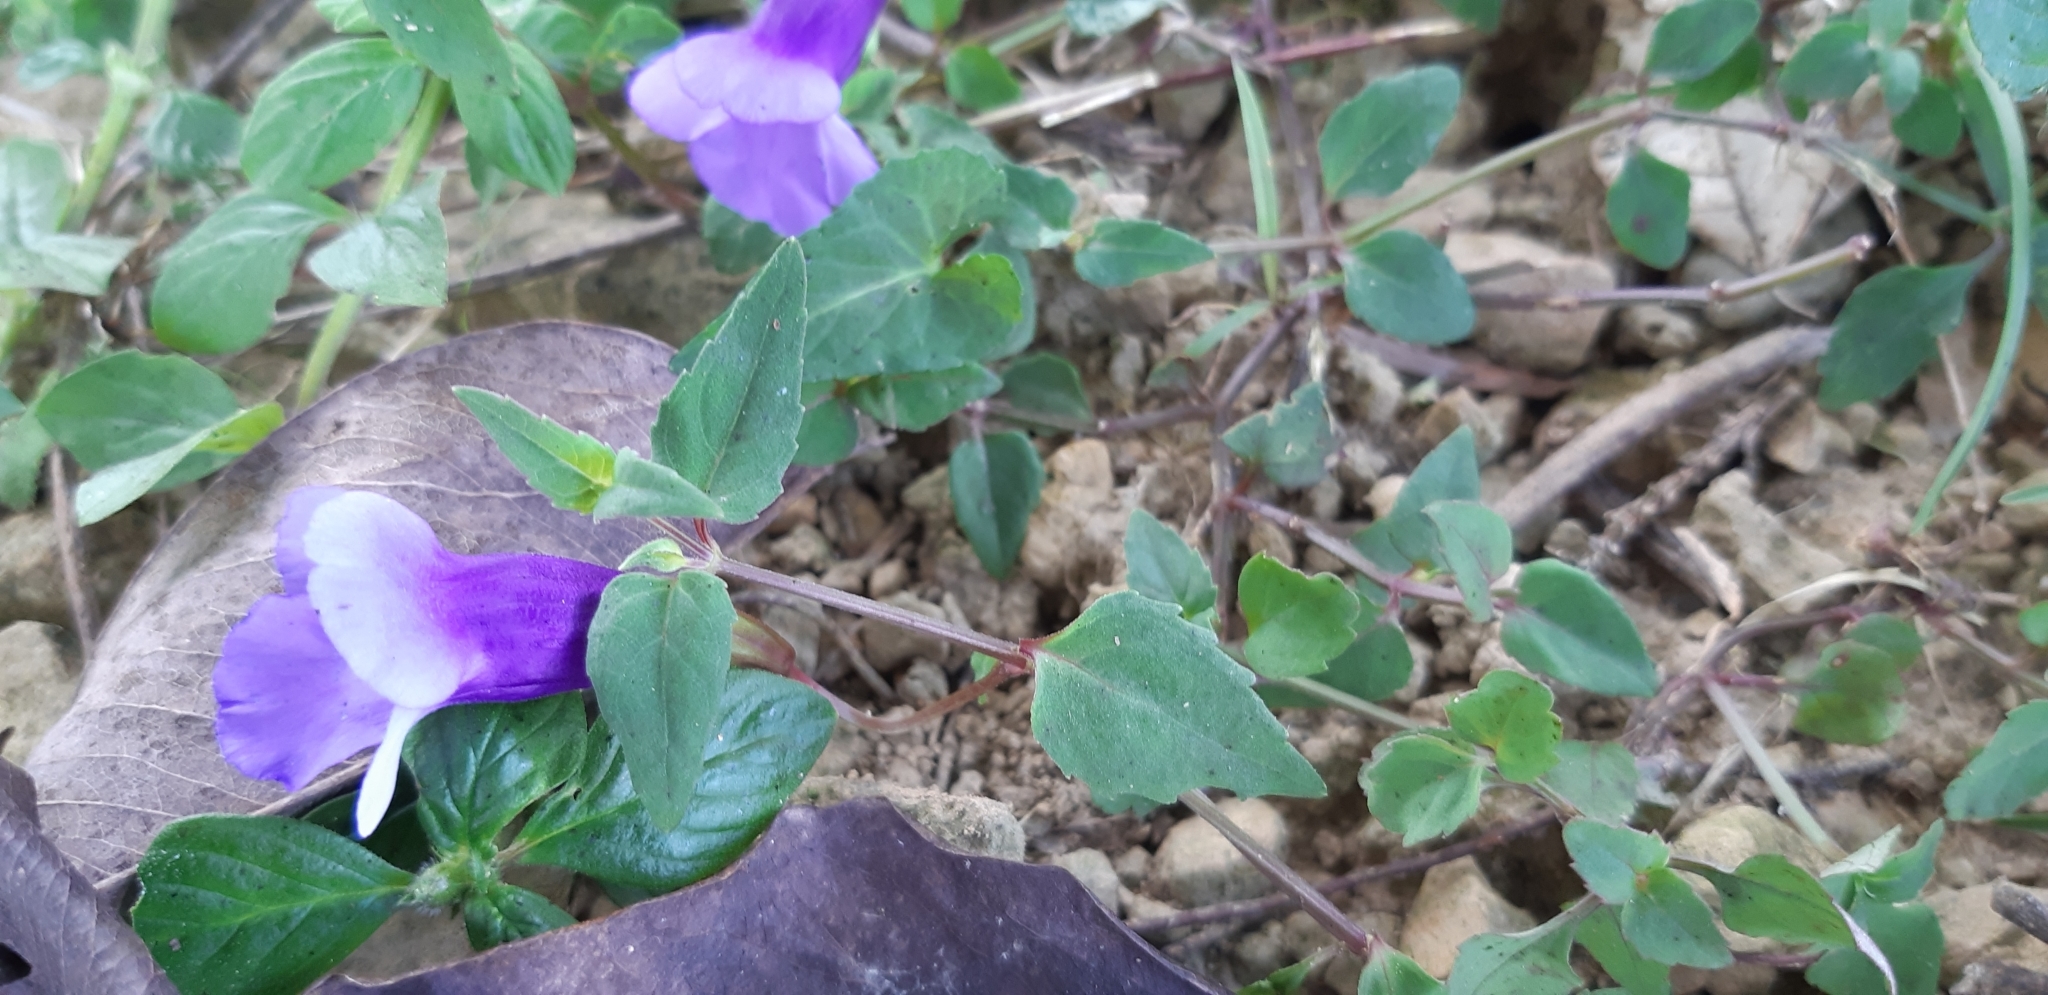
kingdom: Plantae
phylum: Tracheophyta
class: Magnoliopsida
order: Lamiales
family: Linderniaceae
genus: Torenia
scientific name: Torenia concolor
